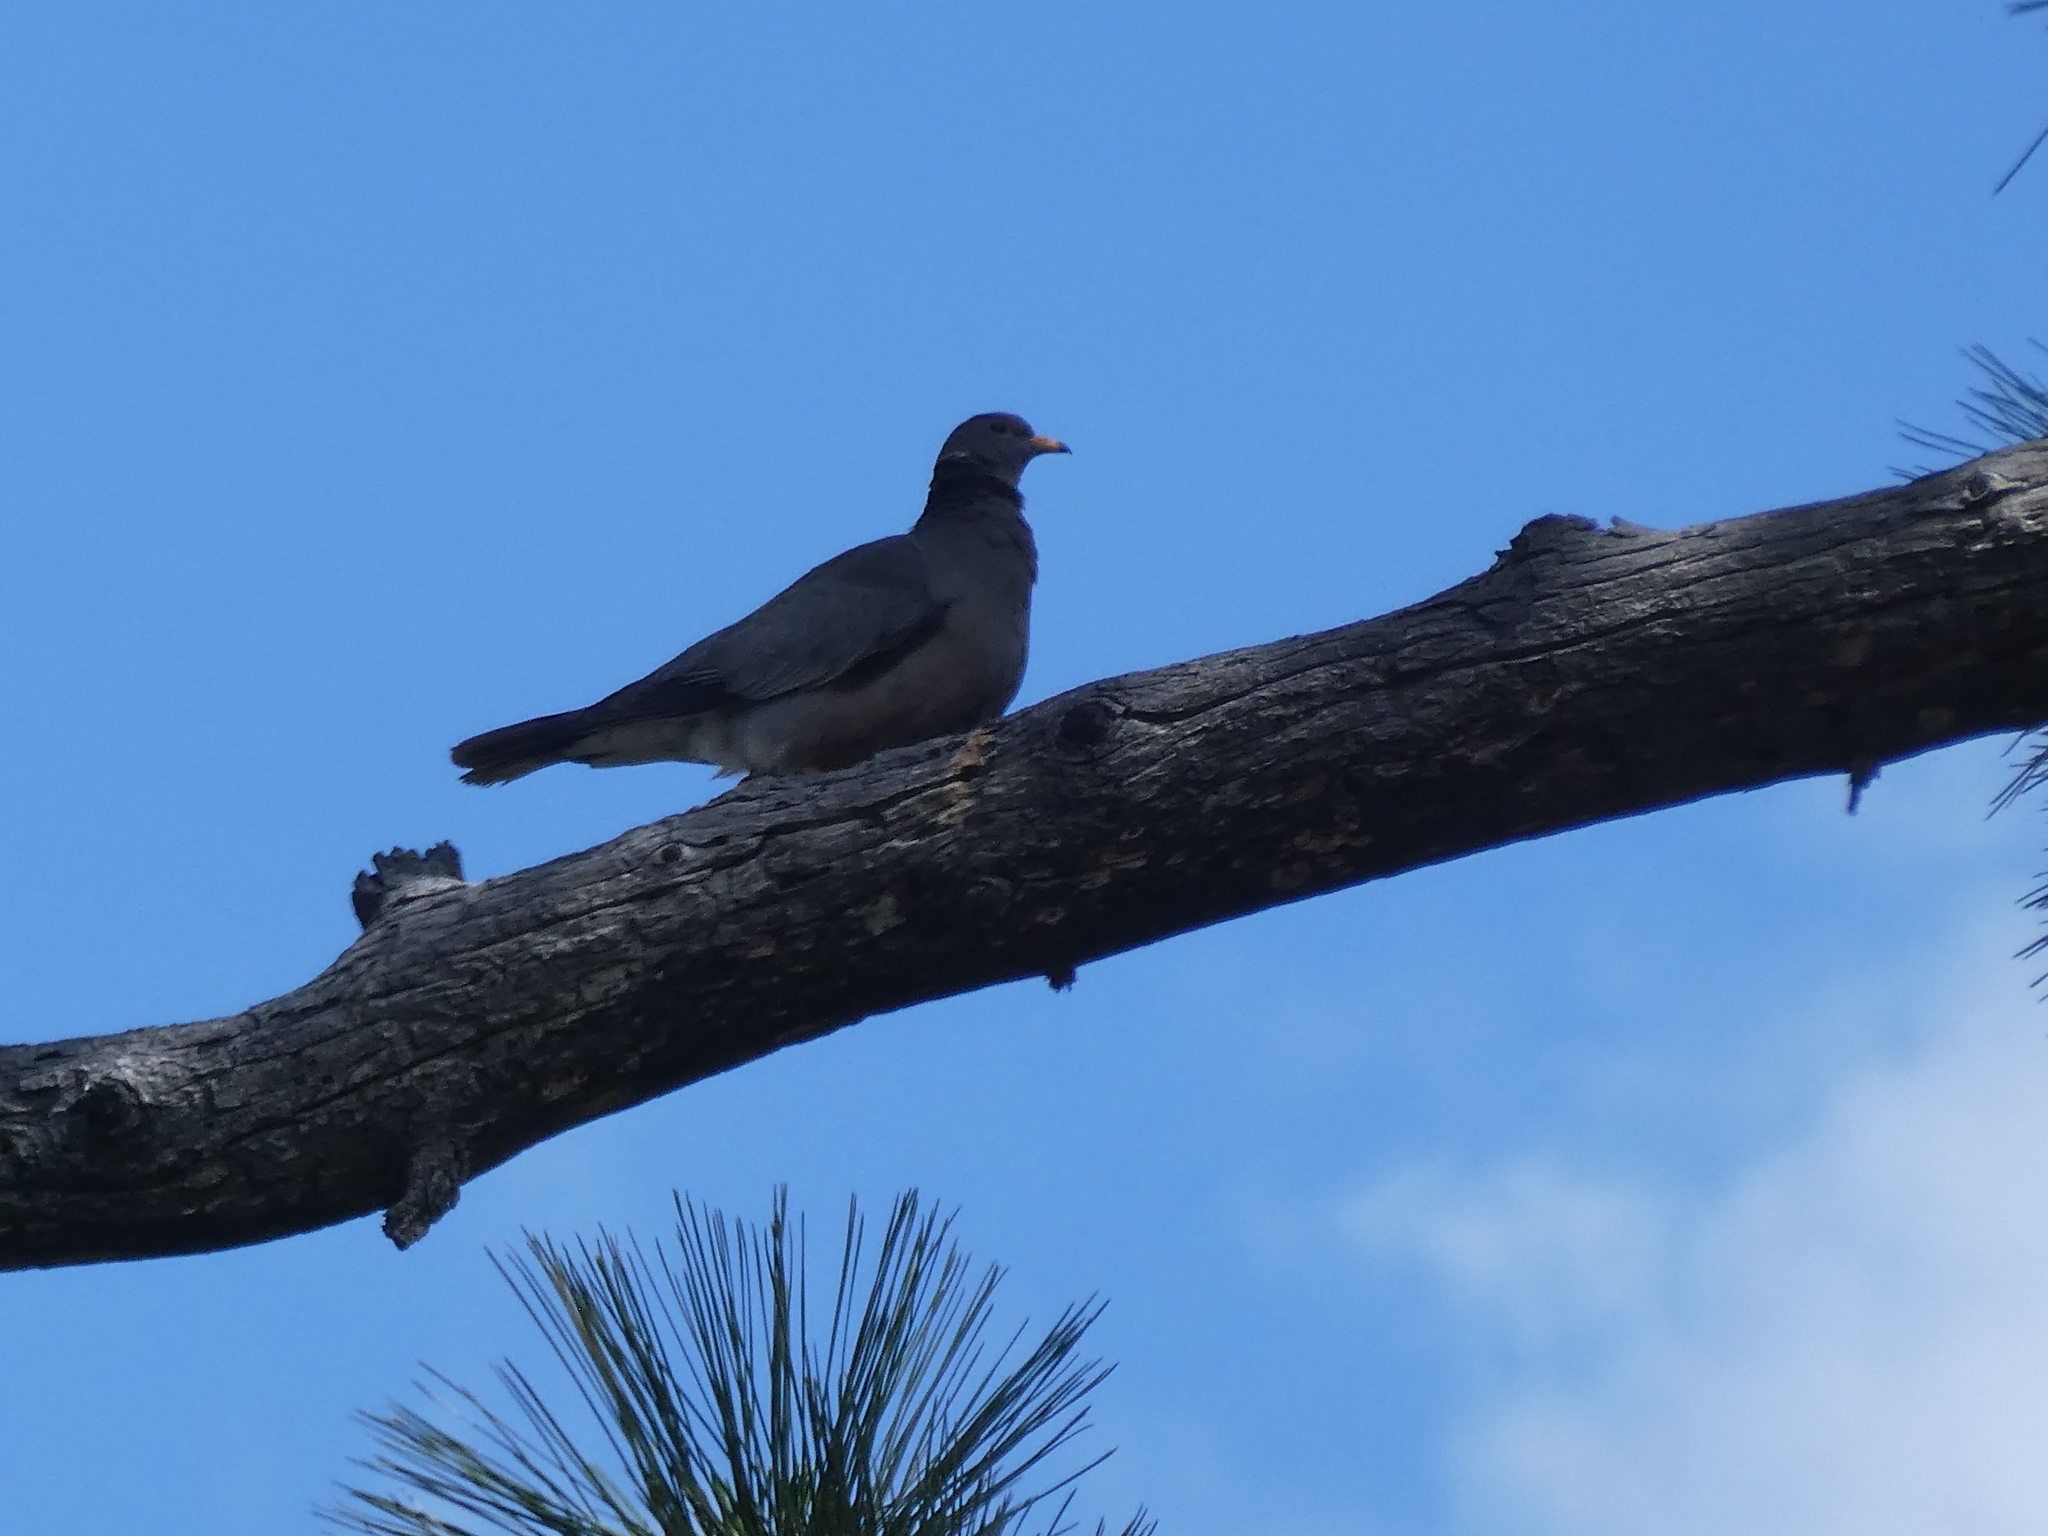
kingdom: Animalia
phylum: Chordata
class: Aves
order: Columbiformes
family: Columbidae
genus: Patagioenas
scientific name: Patagioenas fasciata
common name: Band-tailed pigeon
